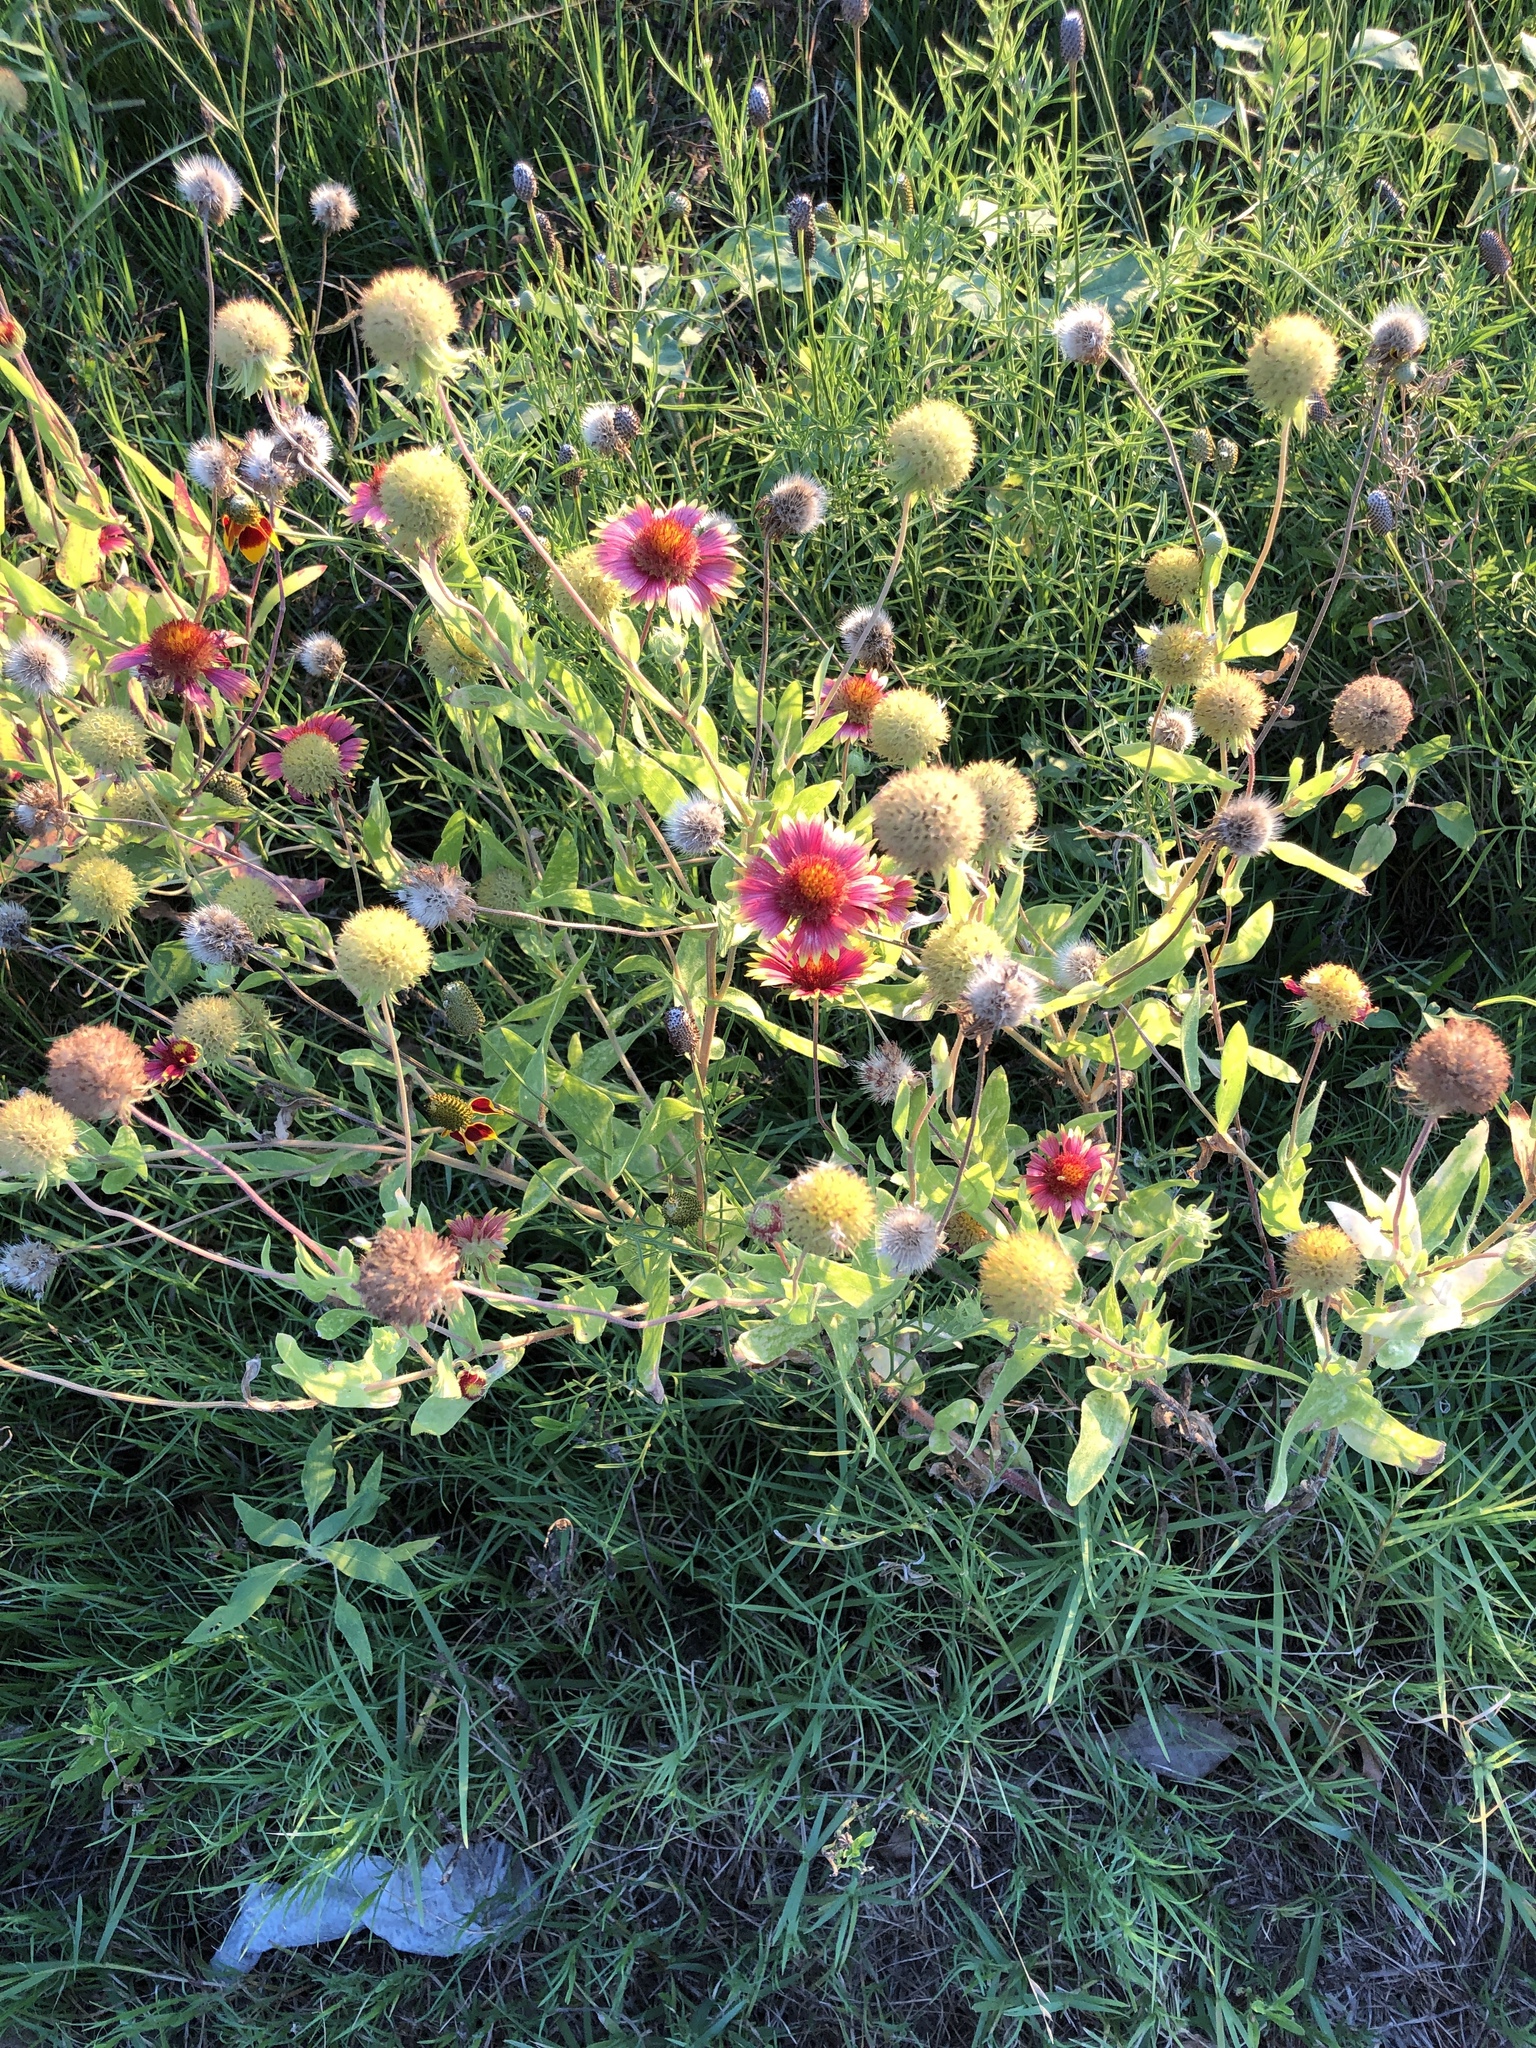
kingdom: Plantae
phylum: Tracheophyta
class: Magnoliopsida
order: Asterales
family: Asteraceae
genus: Gaillardia
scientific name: Gaillardia pulchella
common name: Firewheel
